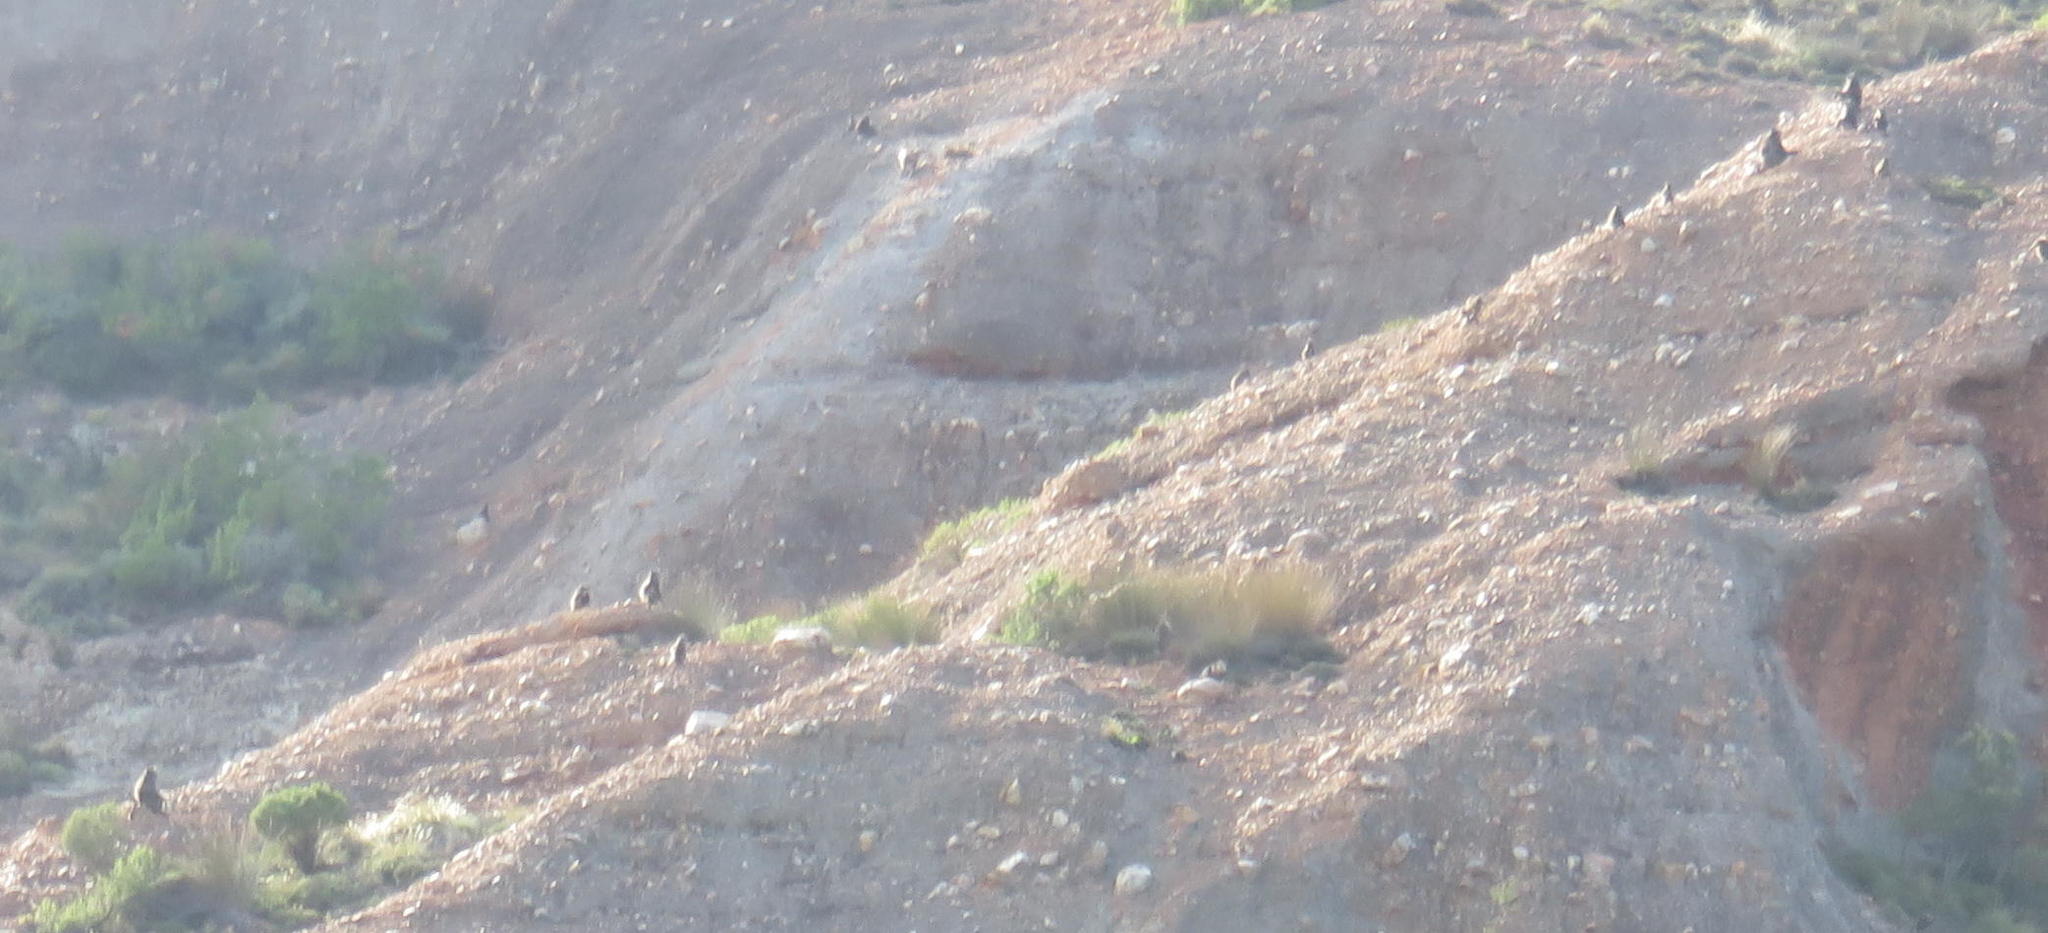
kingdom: Animalia
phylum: Chordata
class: Mammalia
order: Primates
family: Cercopithecidae
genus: Papio
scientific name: Papio ursinus
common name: Chacma baboon
